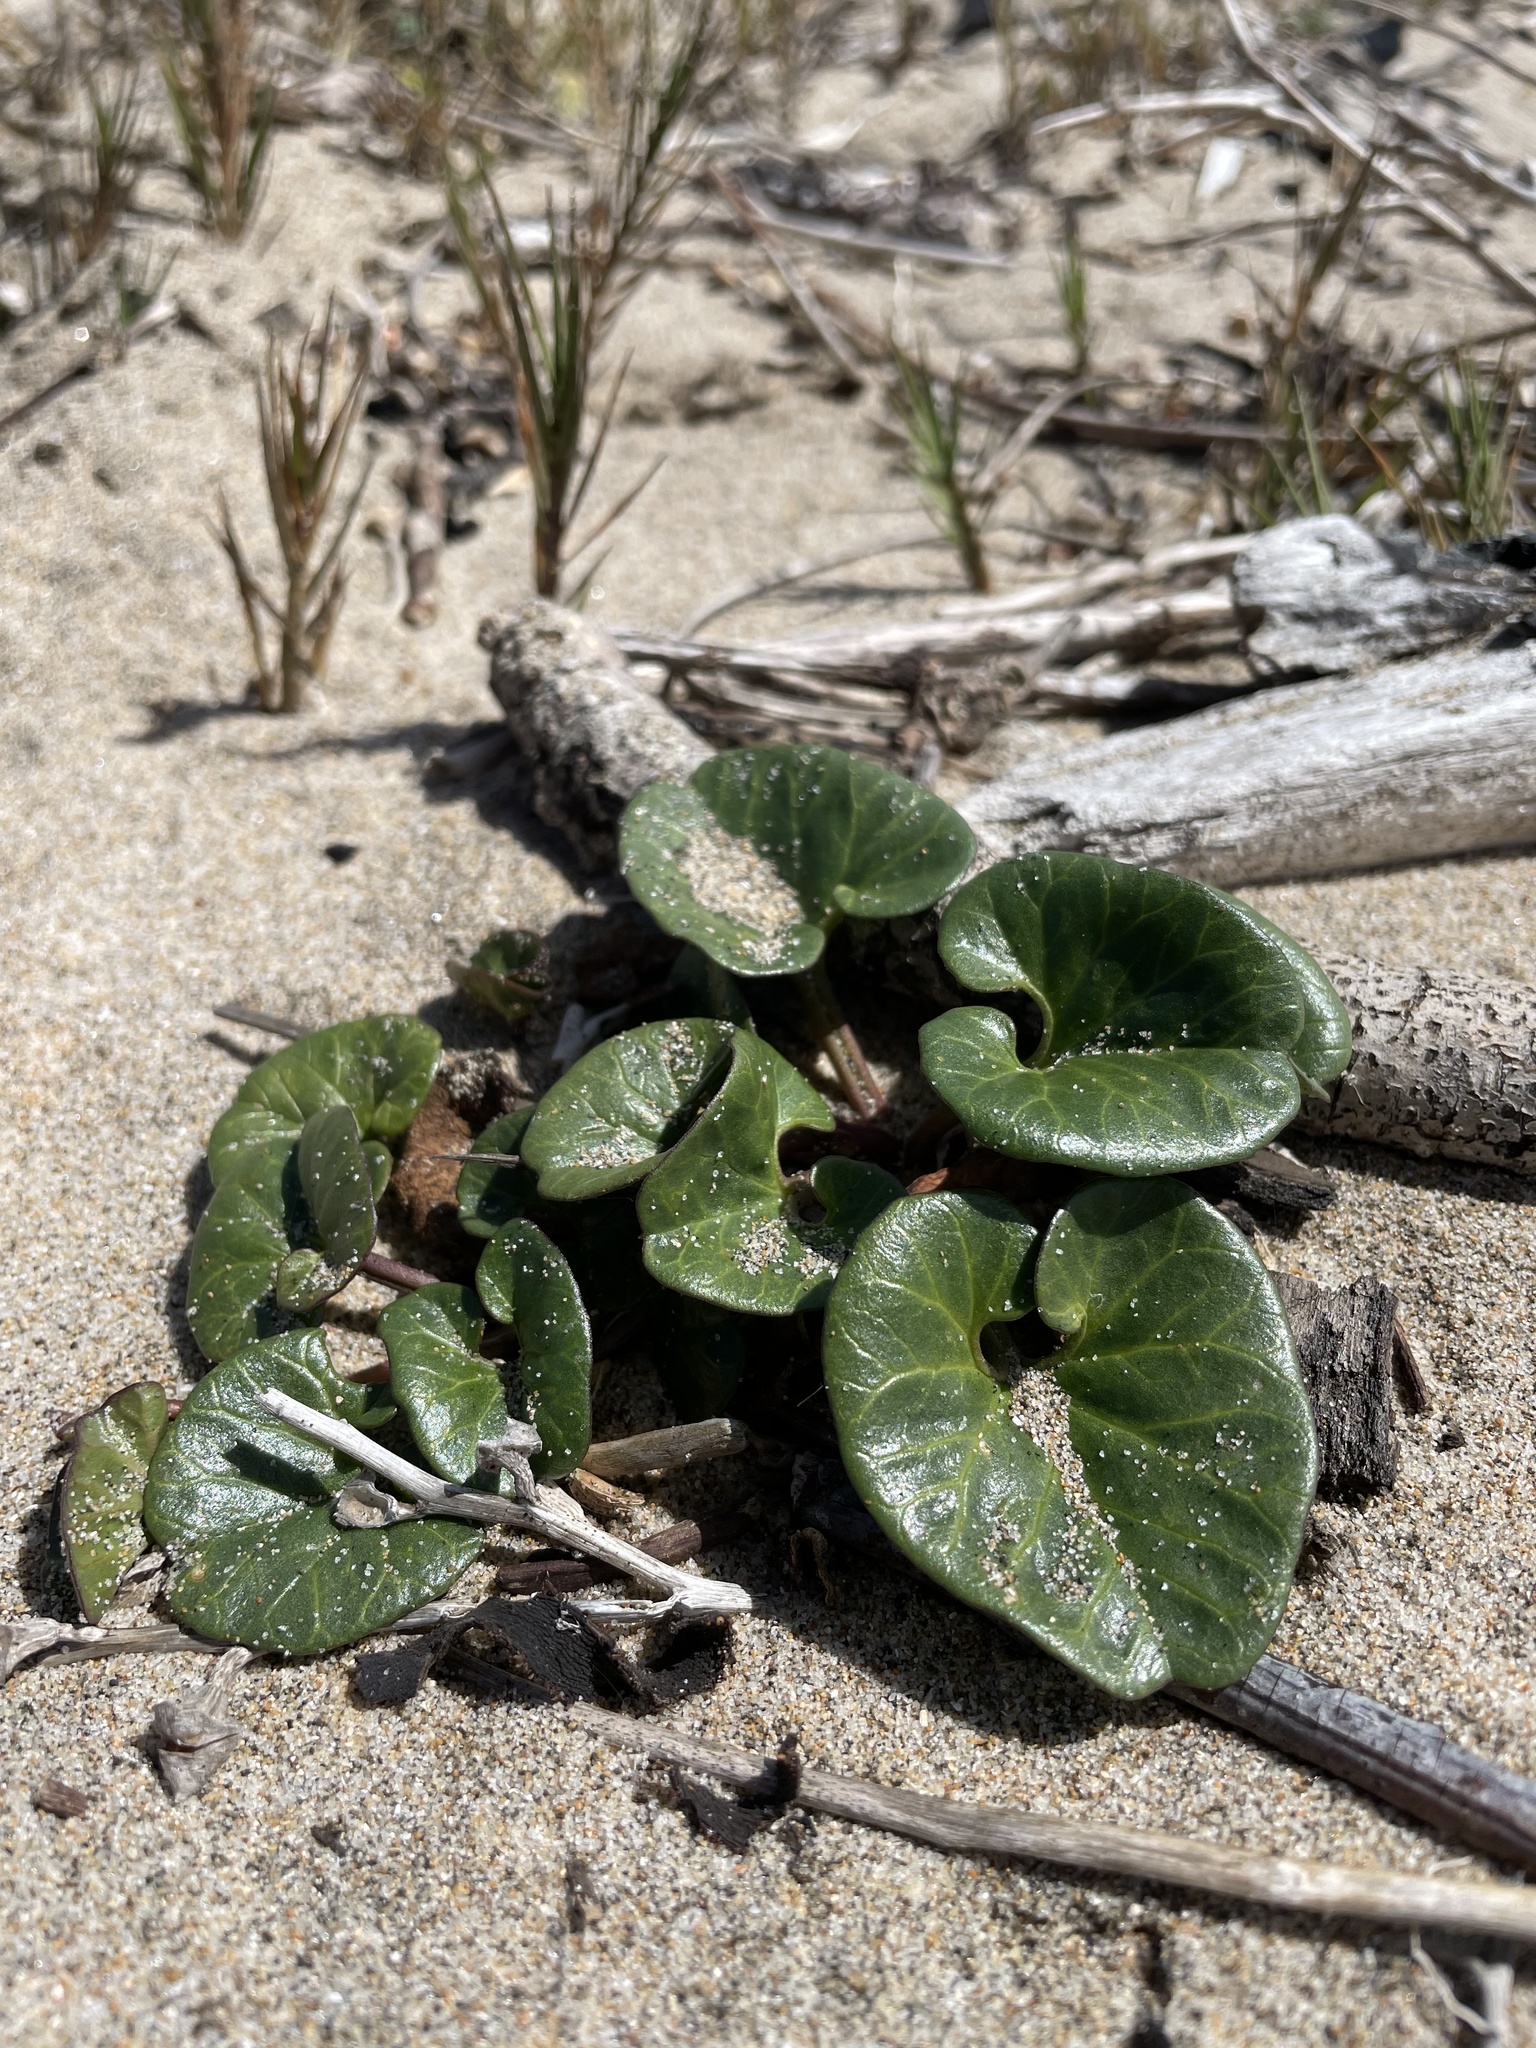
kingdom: Plantae
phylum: Tracheophyta
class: Magnoliopsida
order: Solanales
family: Convolvulaceae
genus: Calystegia
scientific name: Calystegia soldanella
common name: Sea bindweed
